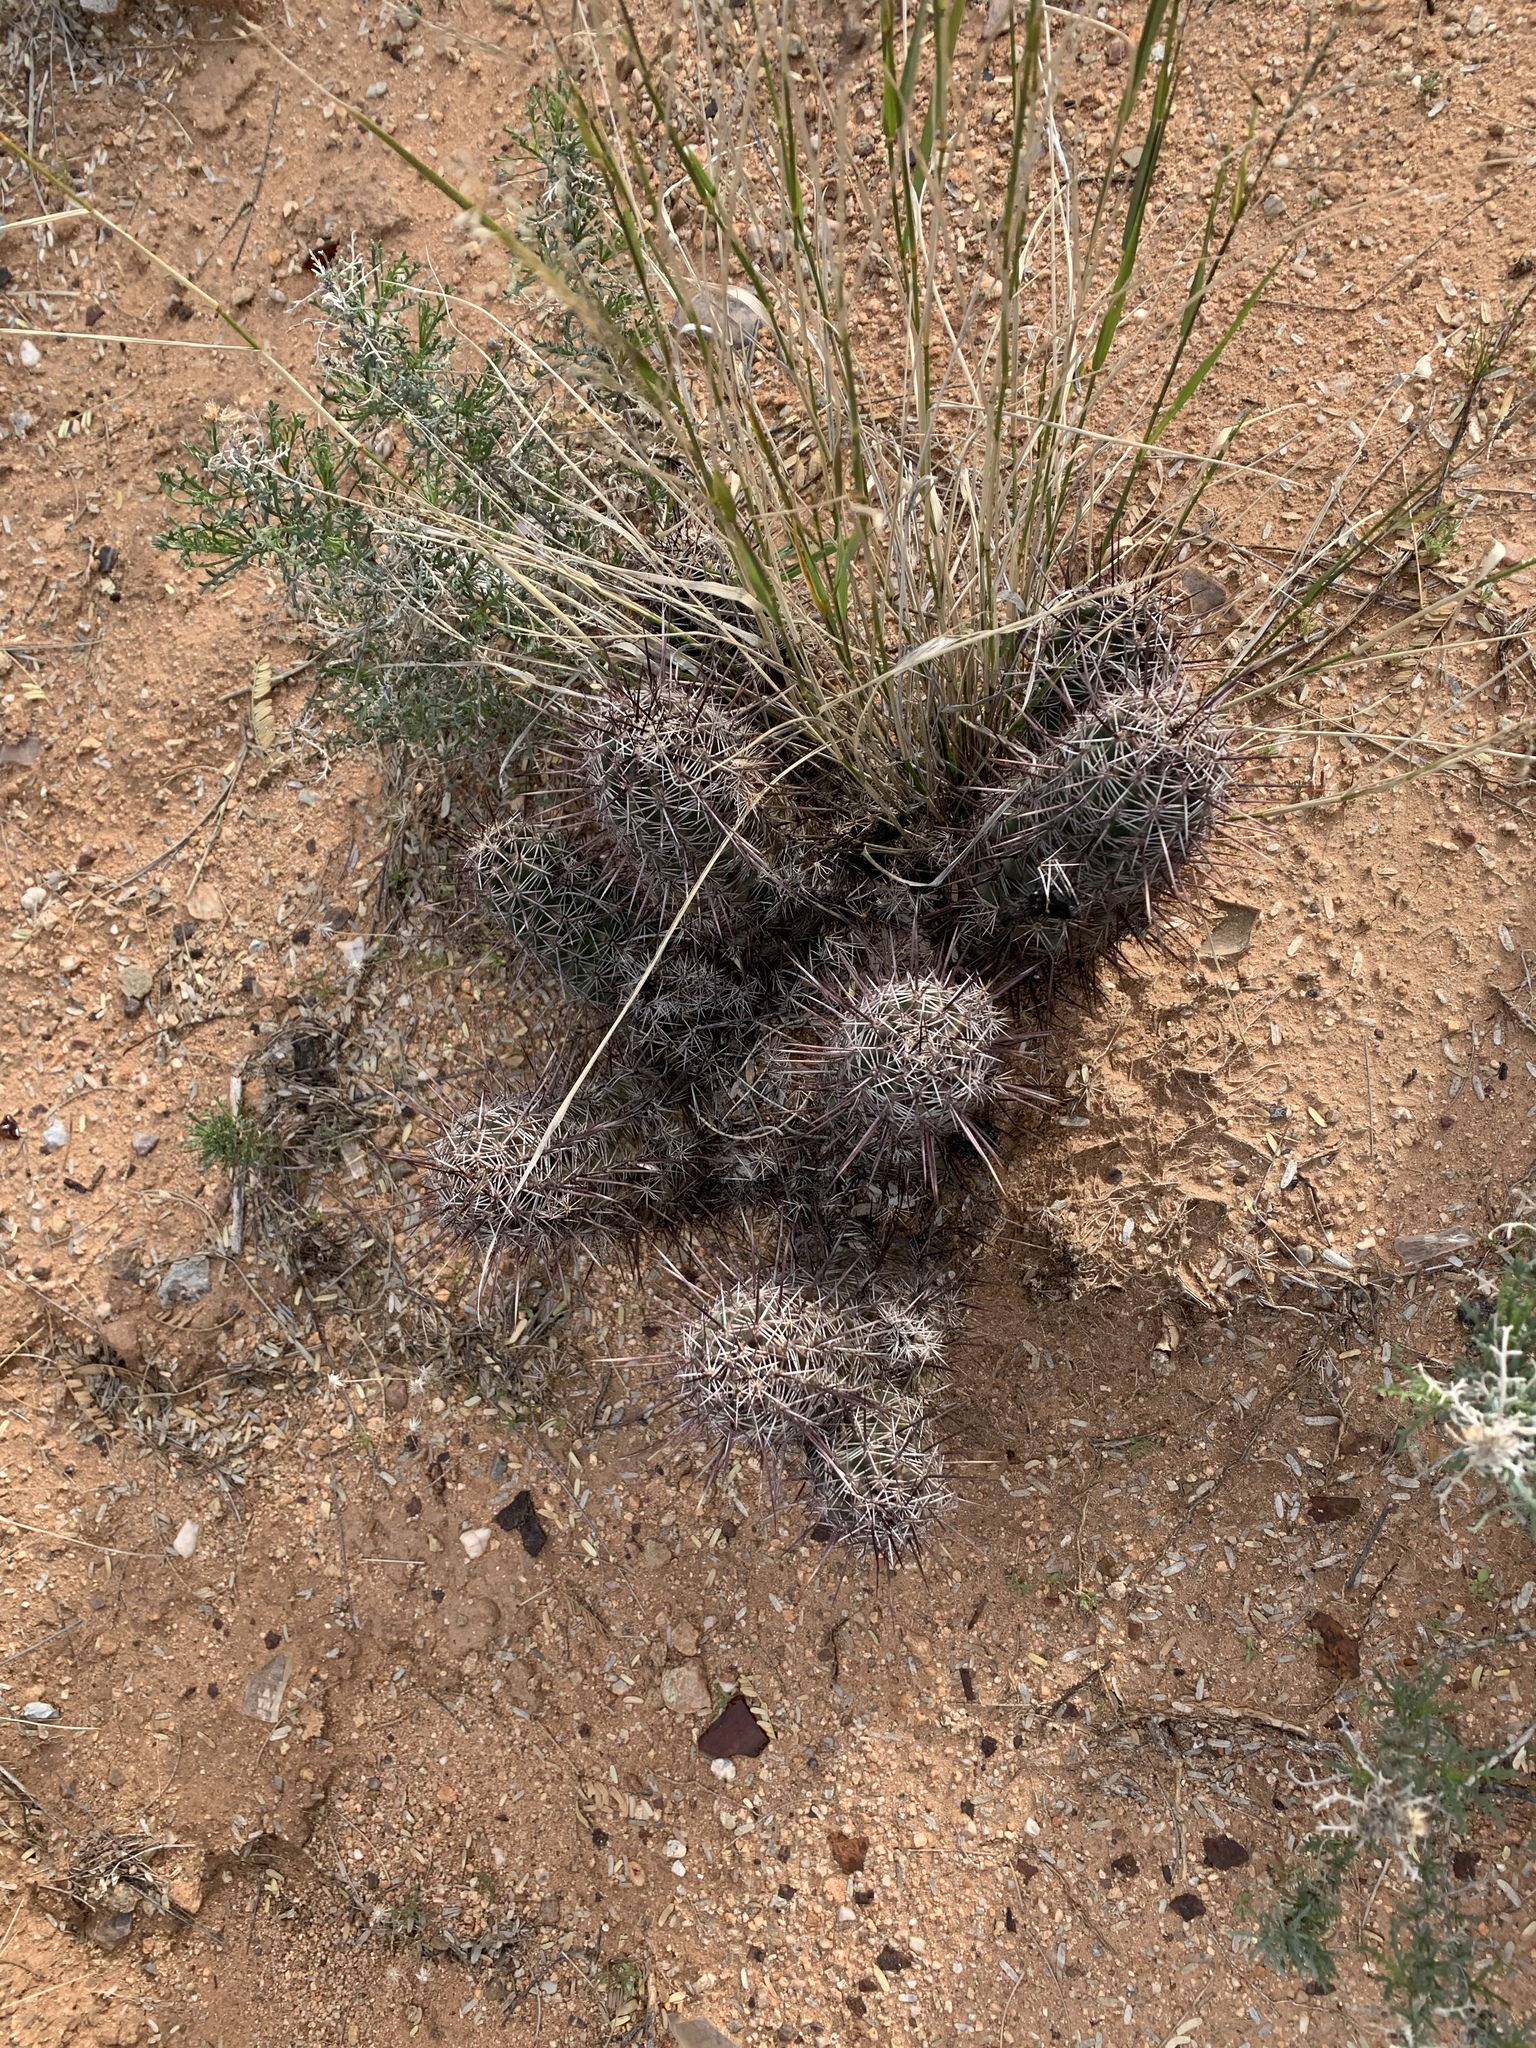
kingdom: Plantae
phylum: Tracheophyta
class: Magnoliopsida
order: Caryophyllales
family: Cactaceae
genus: Echinocereus
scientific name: Echinocereus fasciculatus
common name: Bundle hedgehog
